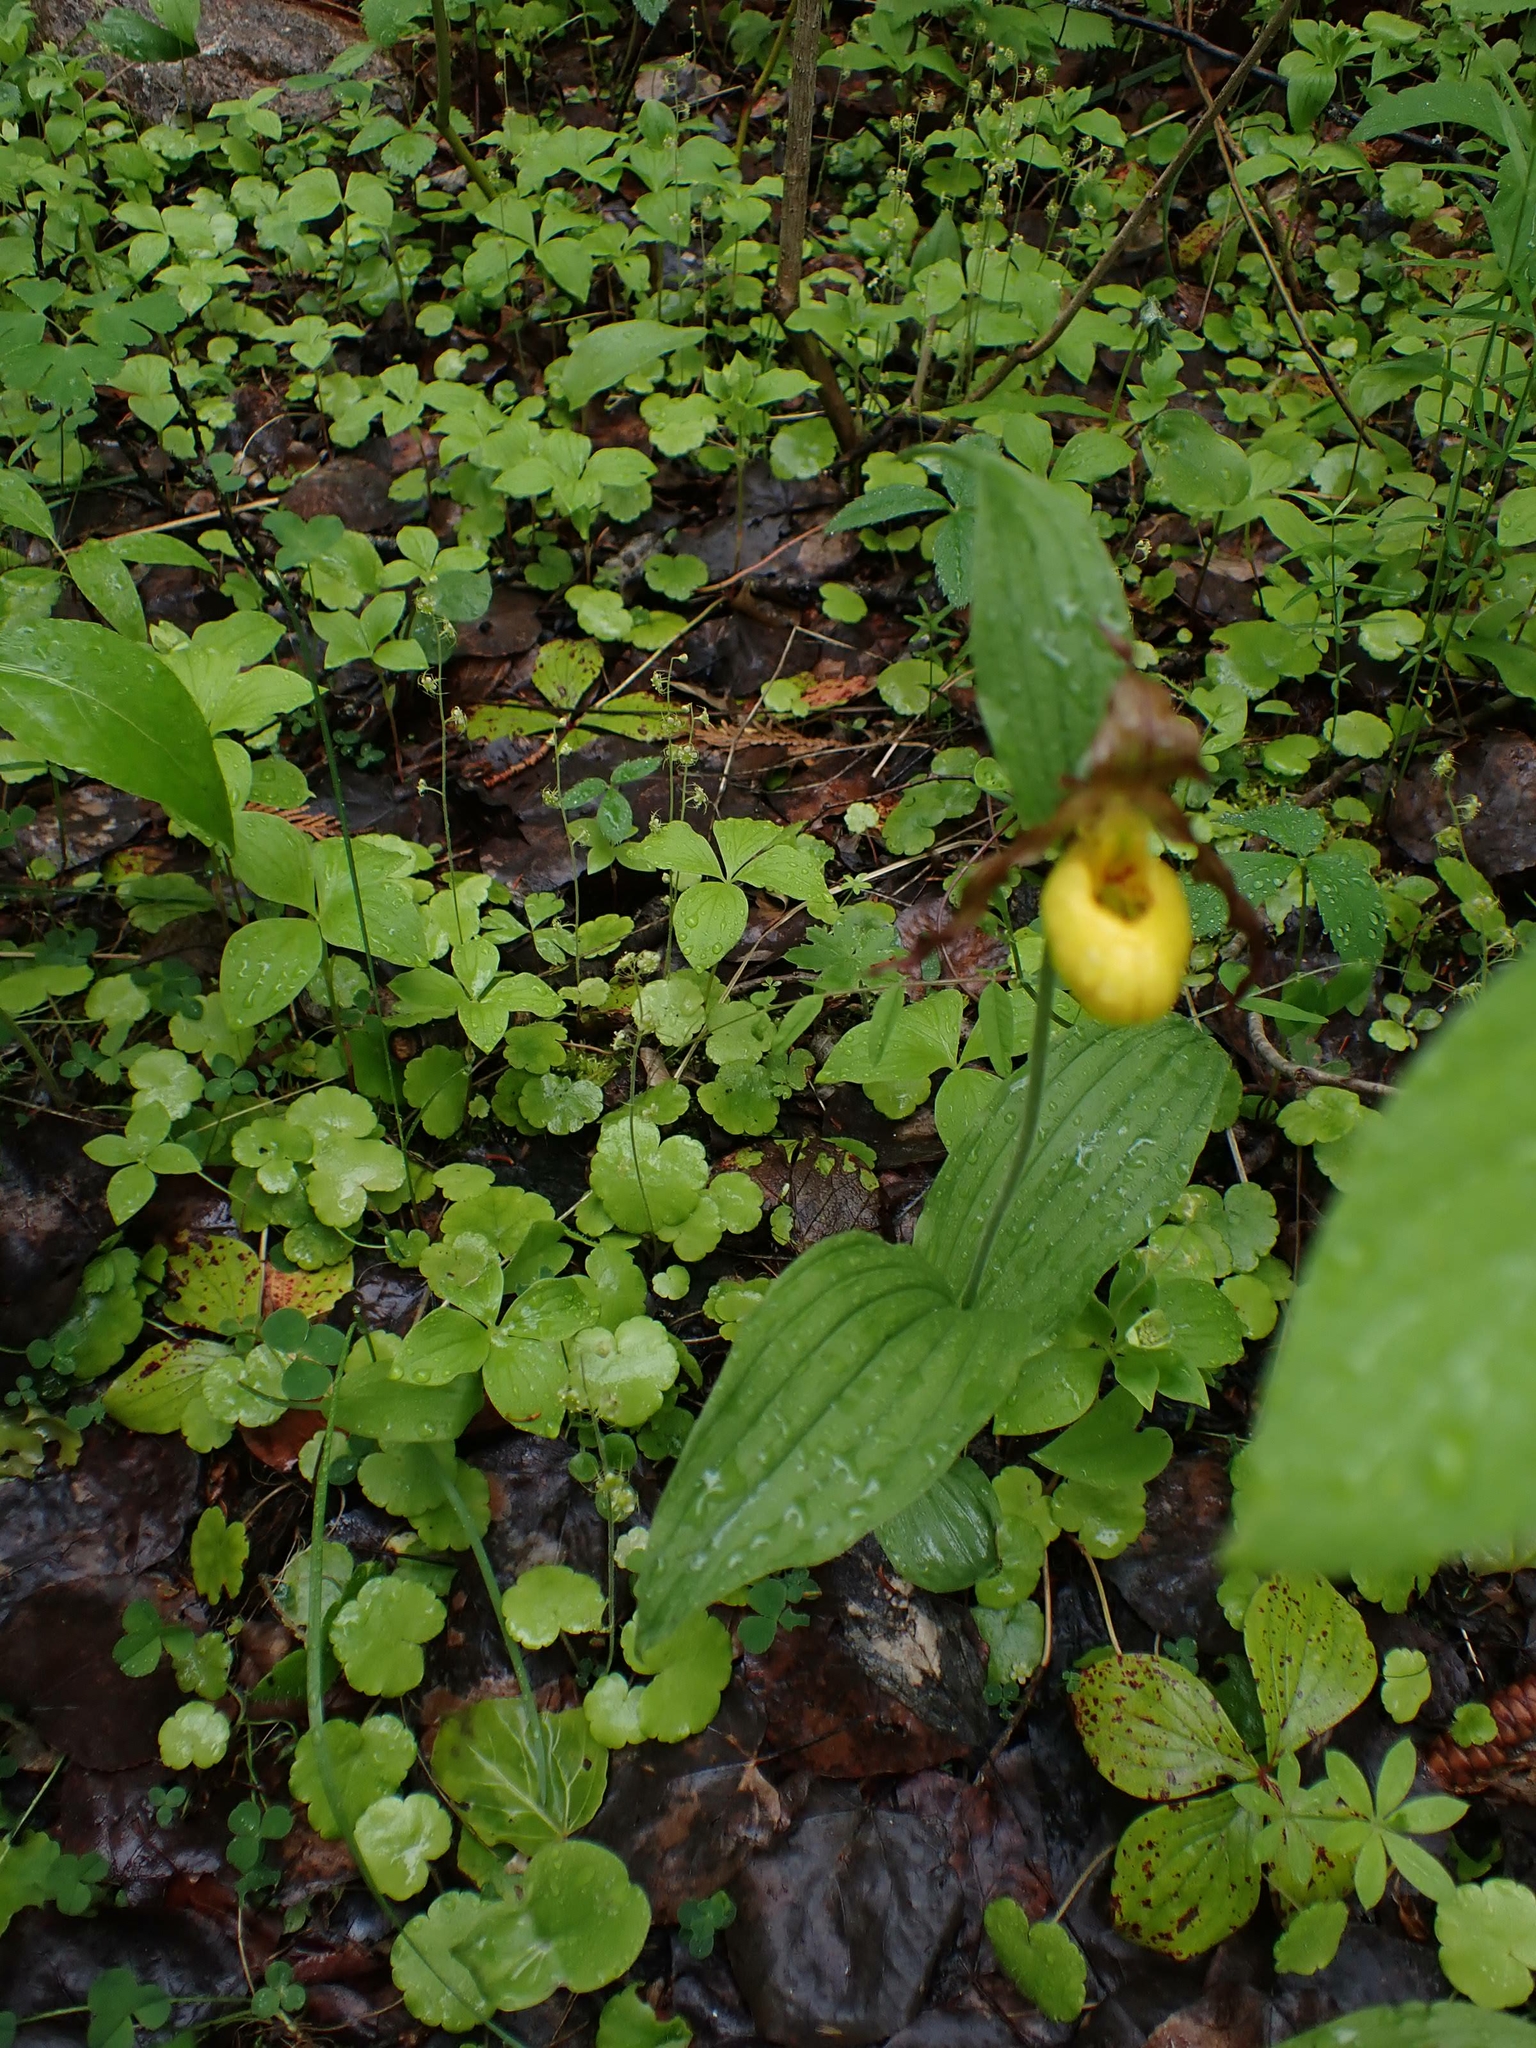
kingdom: Plantae
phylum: Tracheophyta
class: Liliopsida
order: Asparagales
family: Orchidaceae
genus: Cypripedium
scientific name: Cypripedium parviflorum
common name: American yellow lady's-slipper
